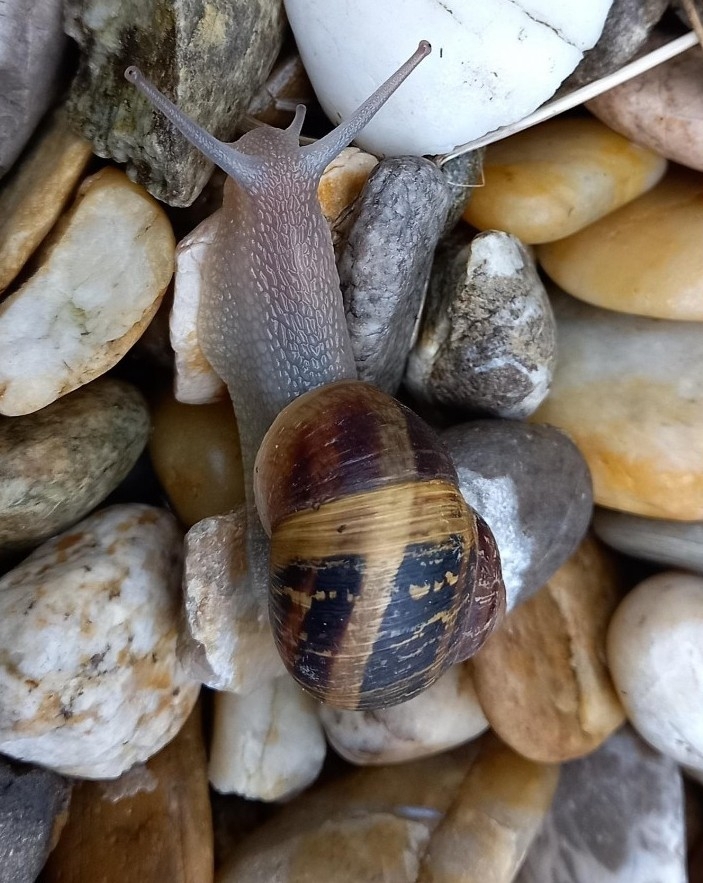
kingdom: Animalia
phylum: Mollusca
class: Gastropoda
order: Stylommatophora
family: Helicidae
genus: Cornu
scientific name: Cornu aspersum
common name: Brown garden snail
